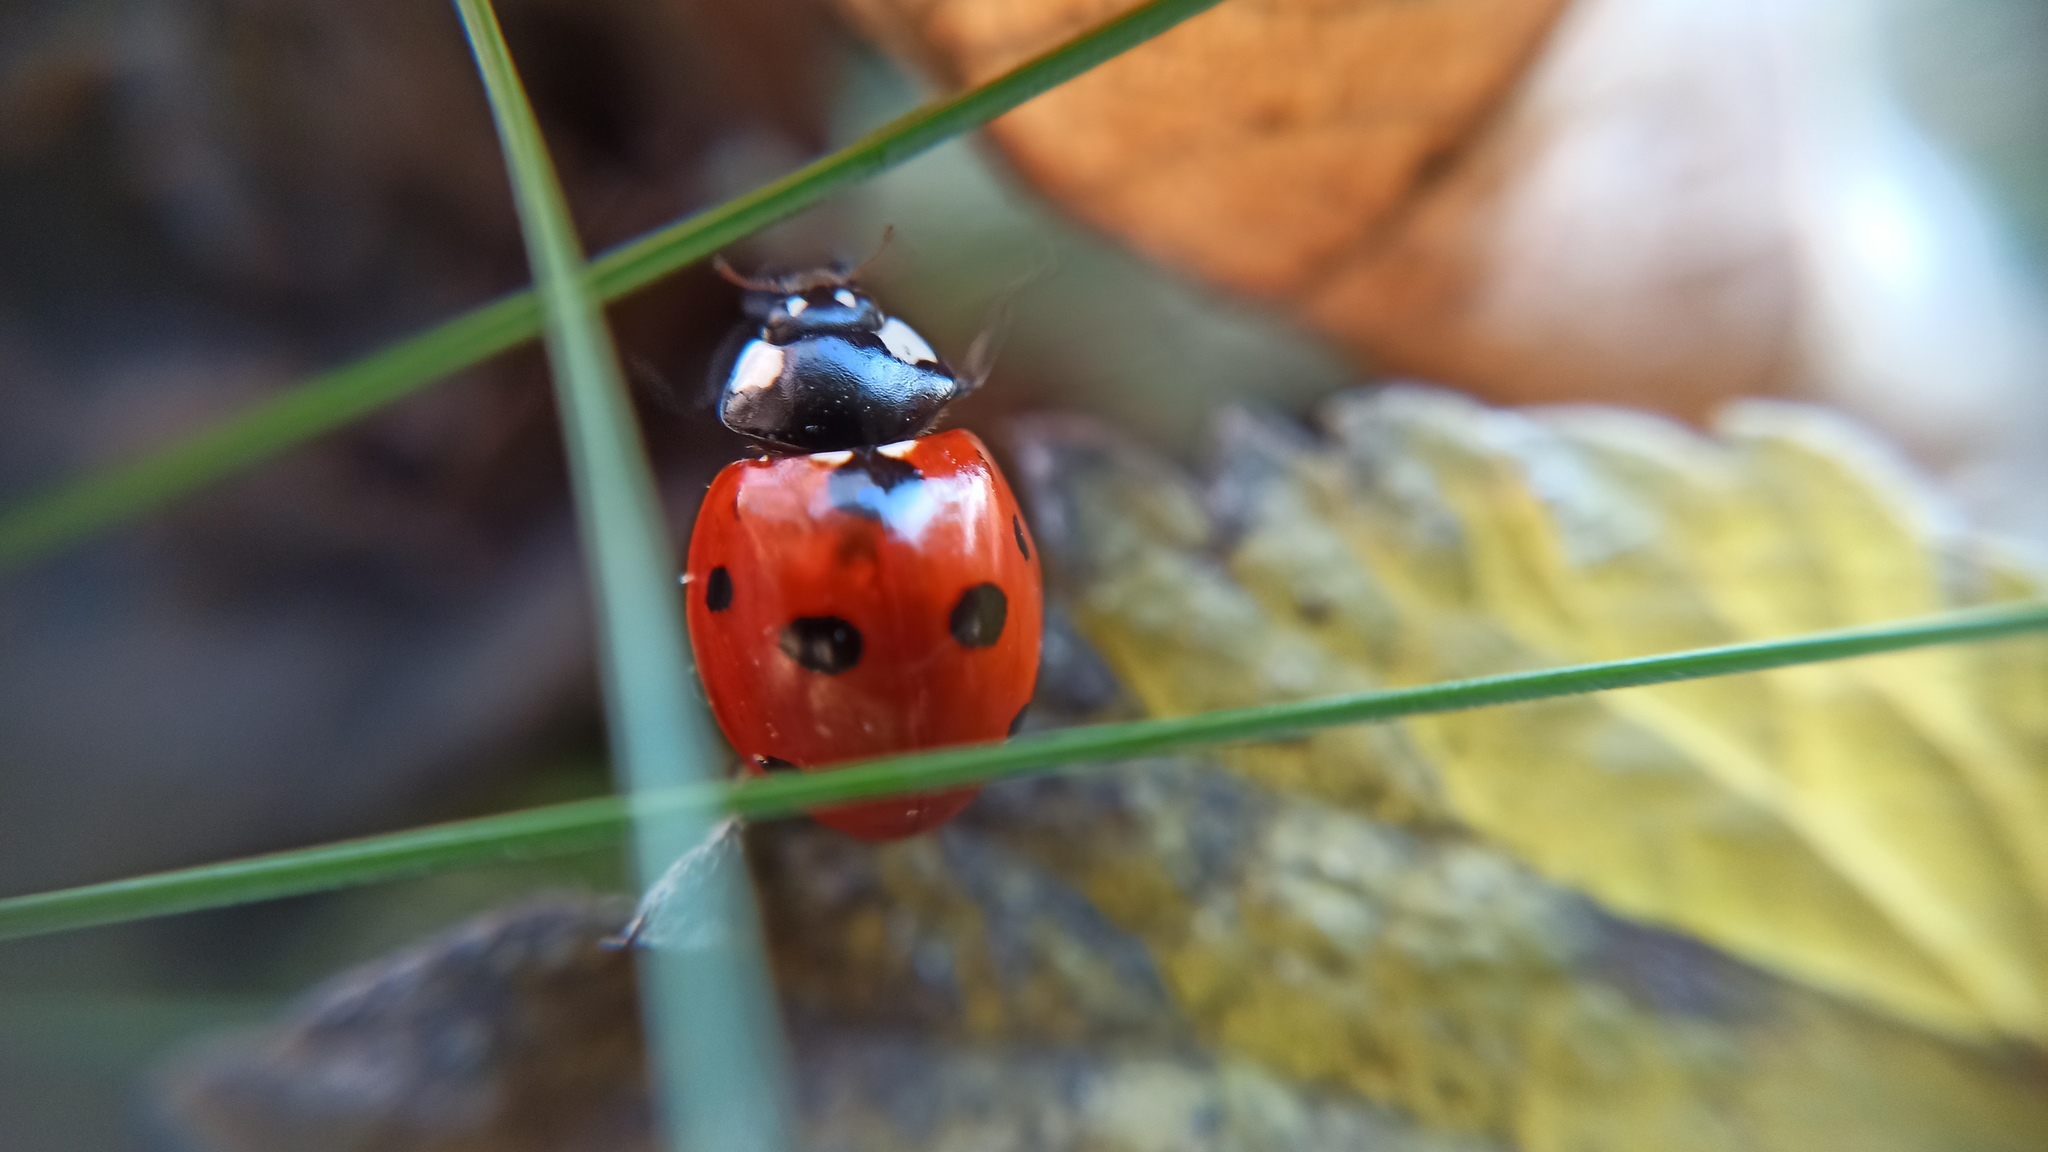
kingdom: Animalia
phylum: Arthropoda
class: Insecta
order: Coleoptera
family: Coccinellidae
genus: Coccinella
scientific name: Coccinella septempunctata
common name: Sevenspotted lady beetle
